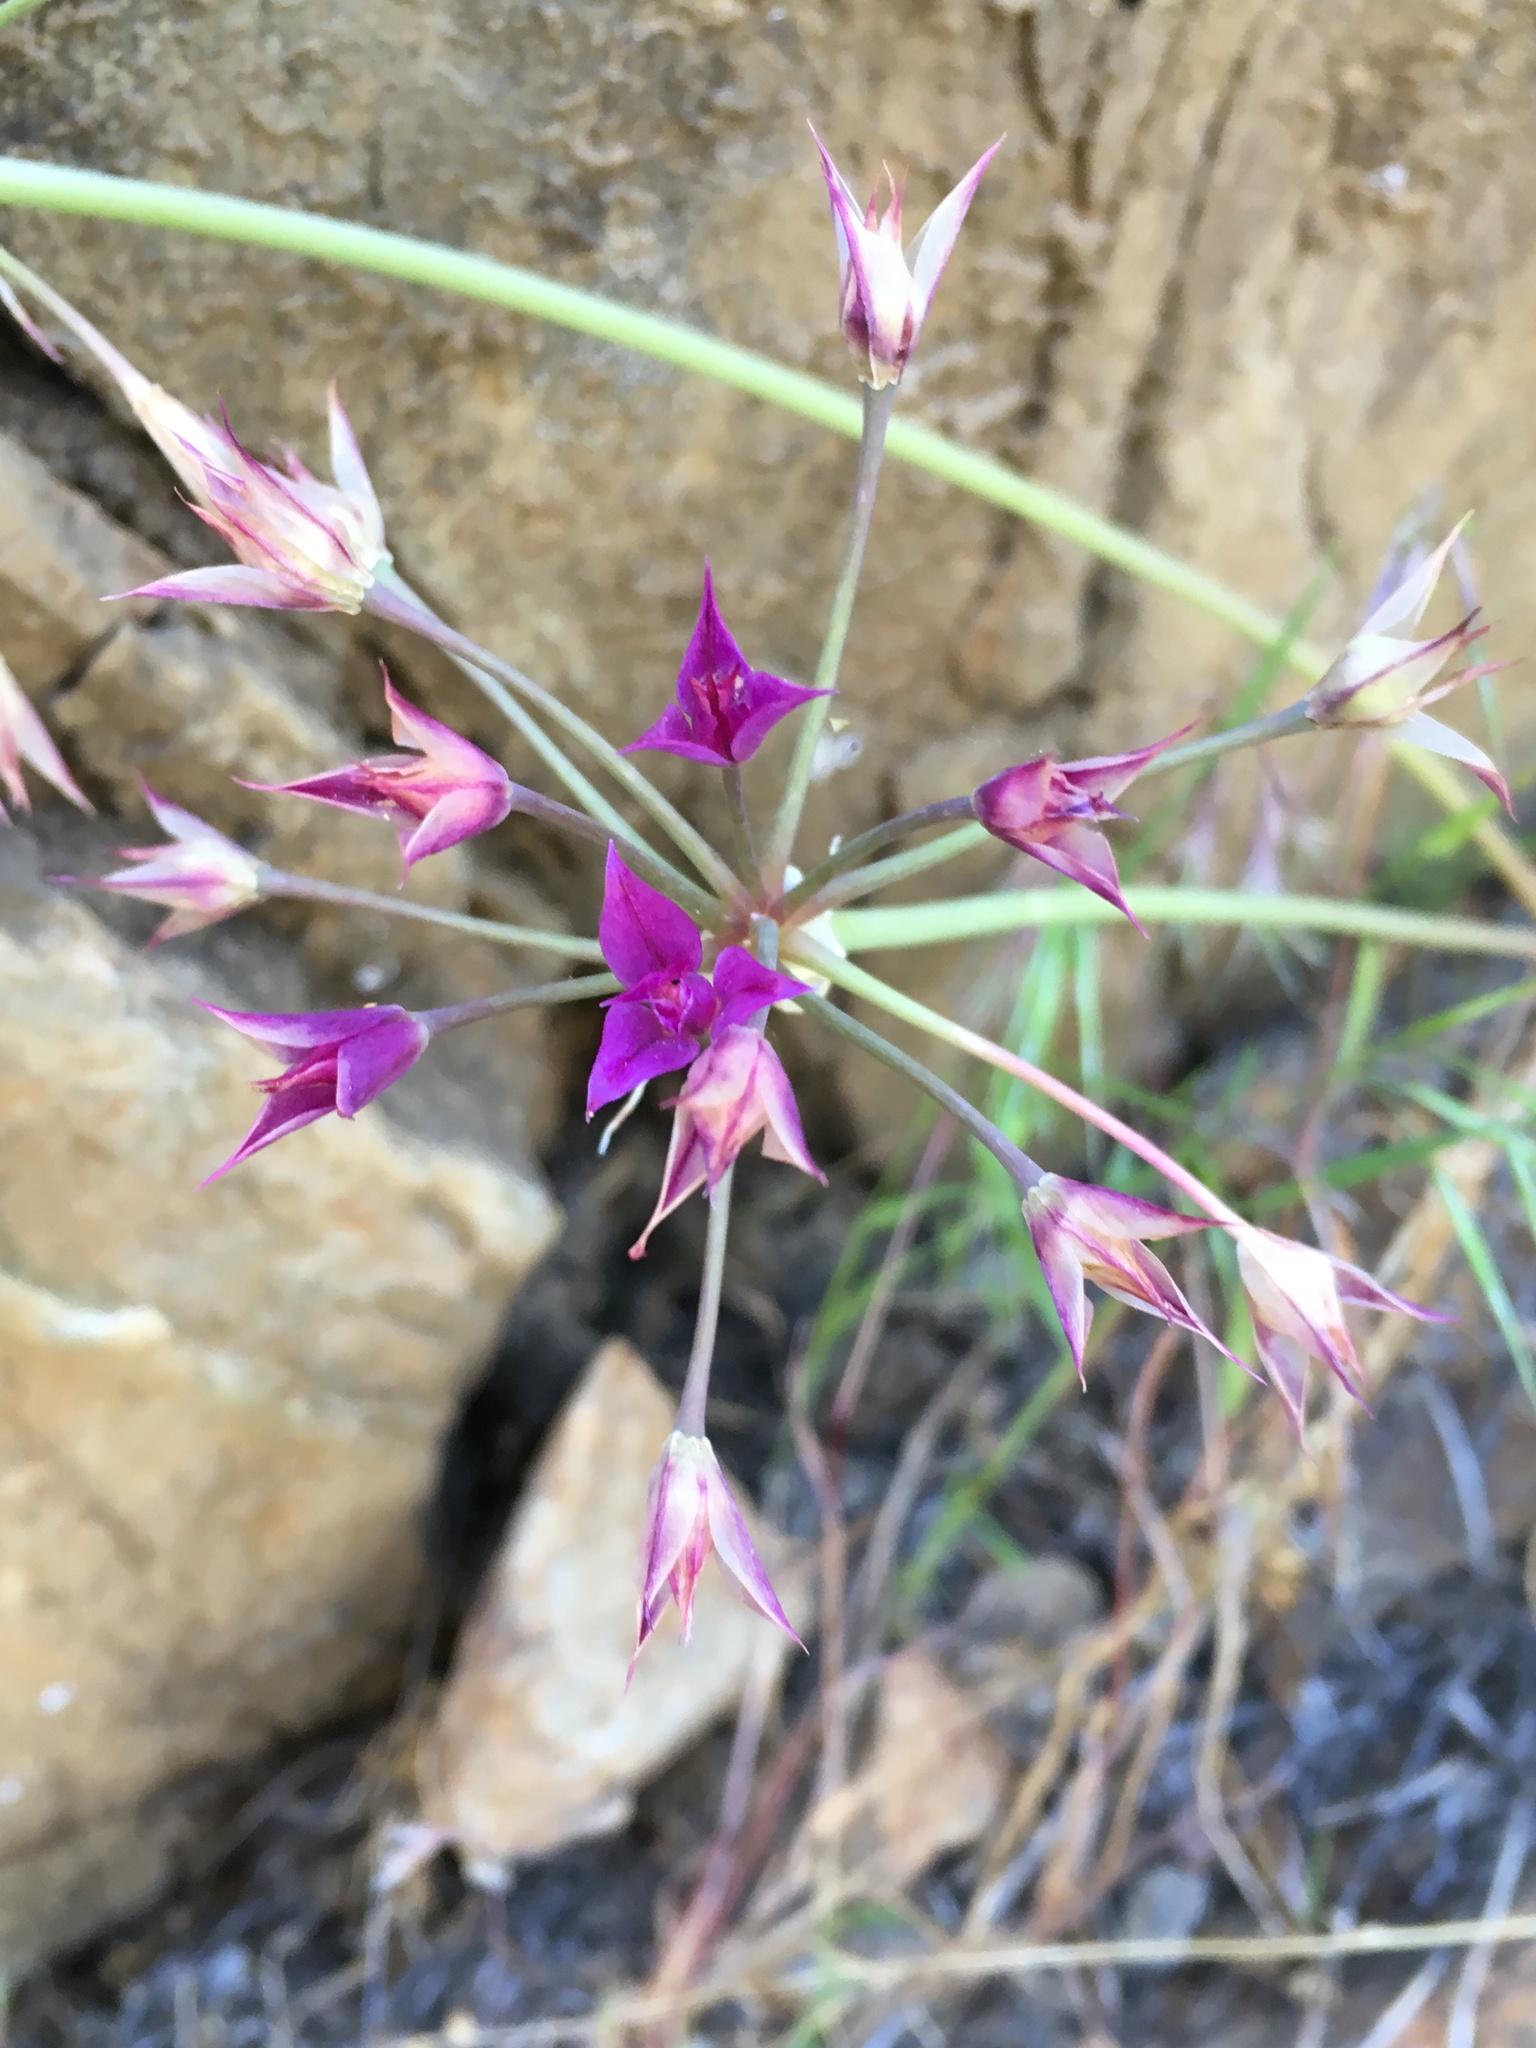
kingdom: Plantae
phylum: Tracheophyta
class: Liliopsida
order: Asparagales
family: Amaryllidaceae
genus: Allium
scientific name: Allium peninsulare
